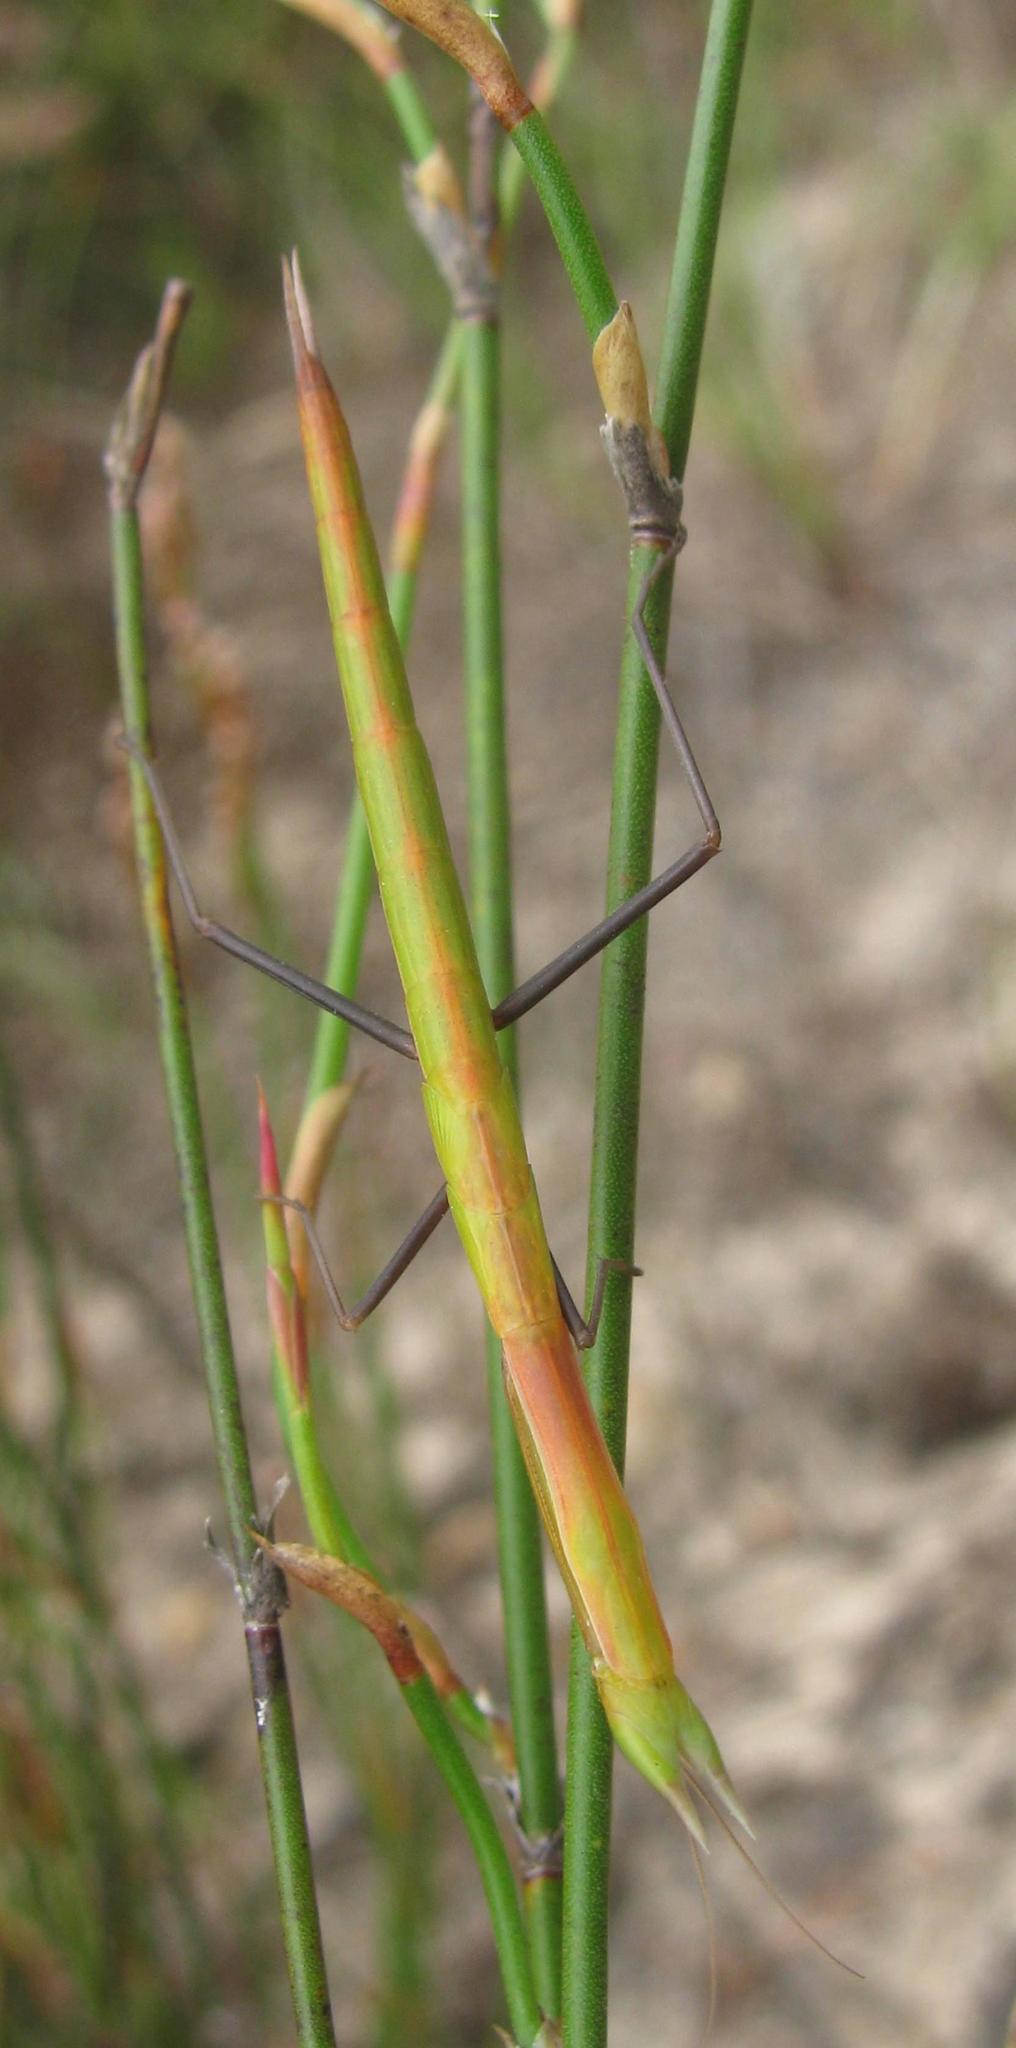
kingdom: Animalia
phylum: Arthropoda
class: Insecta
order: Mantodea
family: Eremiaphilidae
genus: Episcopomantis
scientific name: Episcopomantis chalybea
